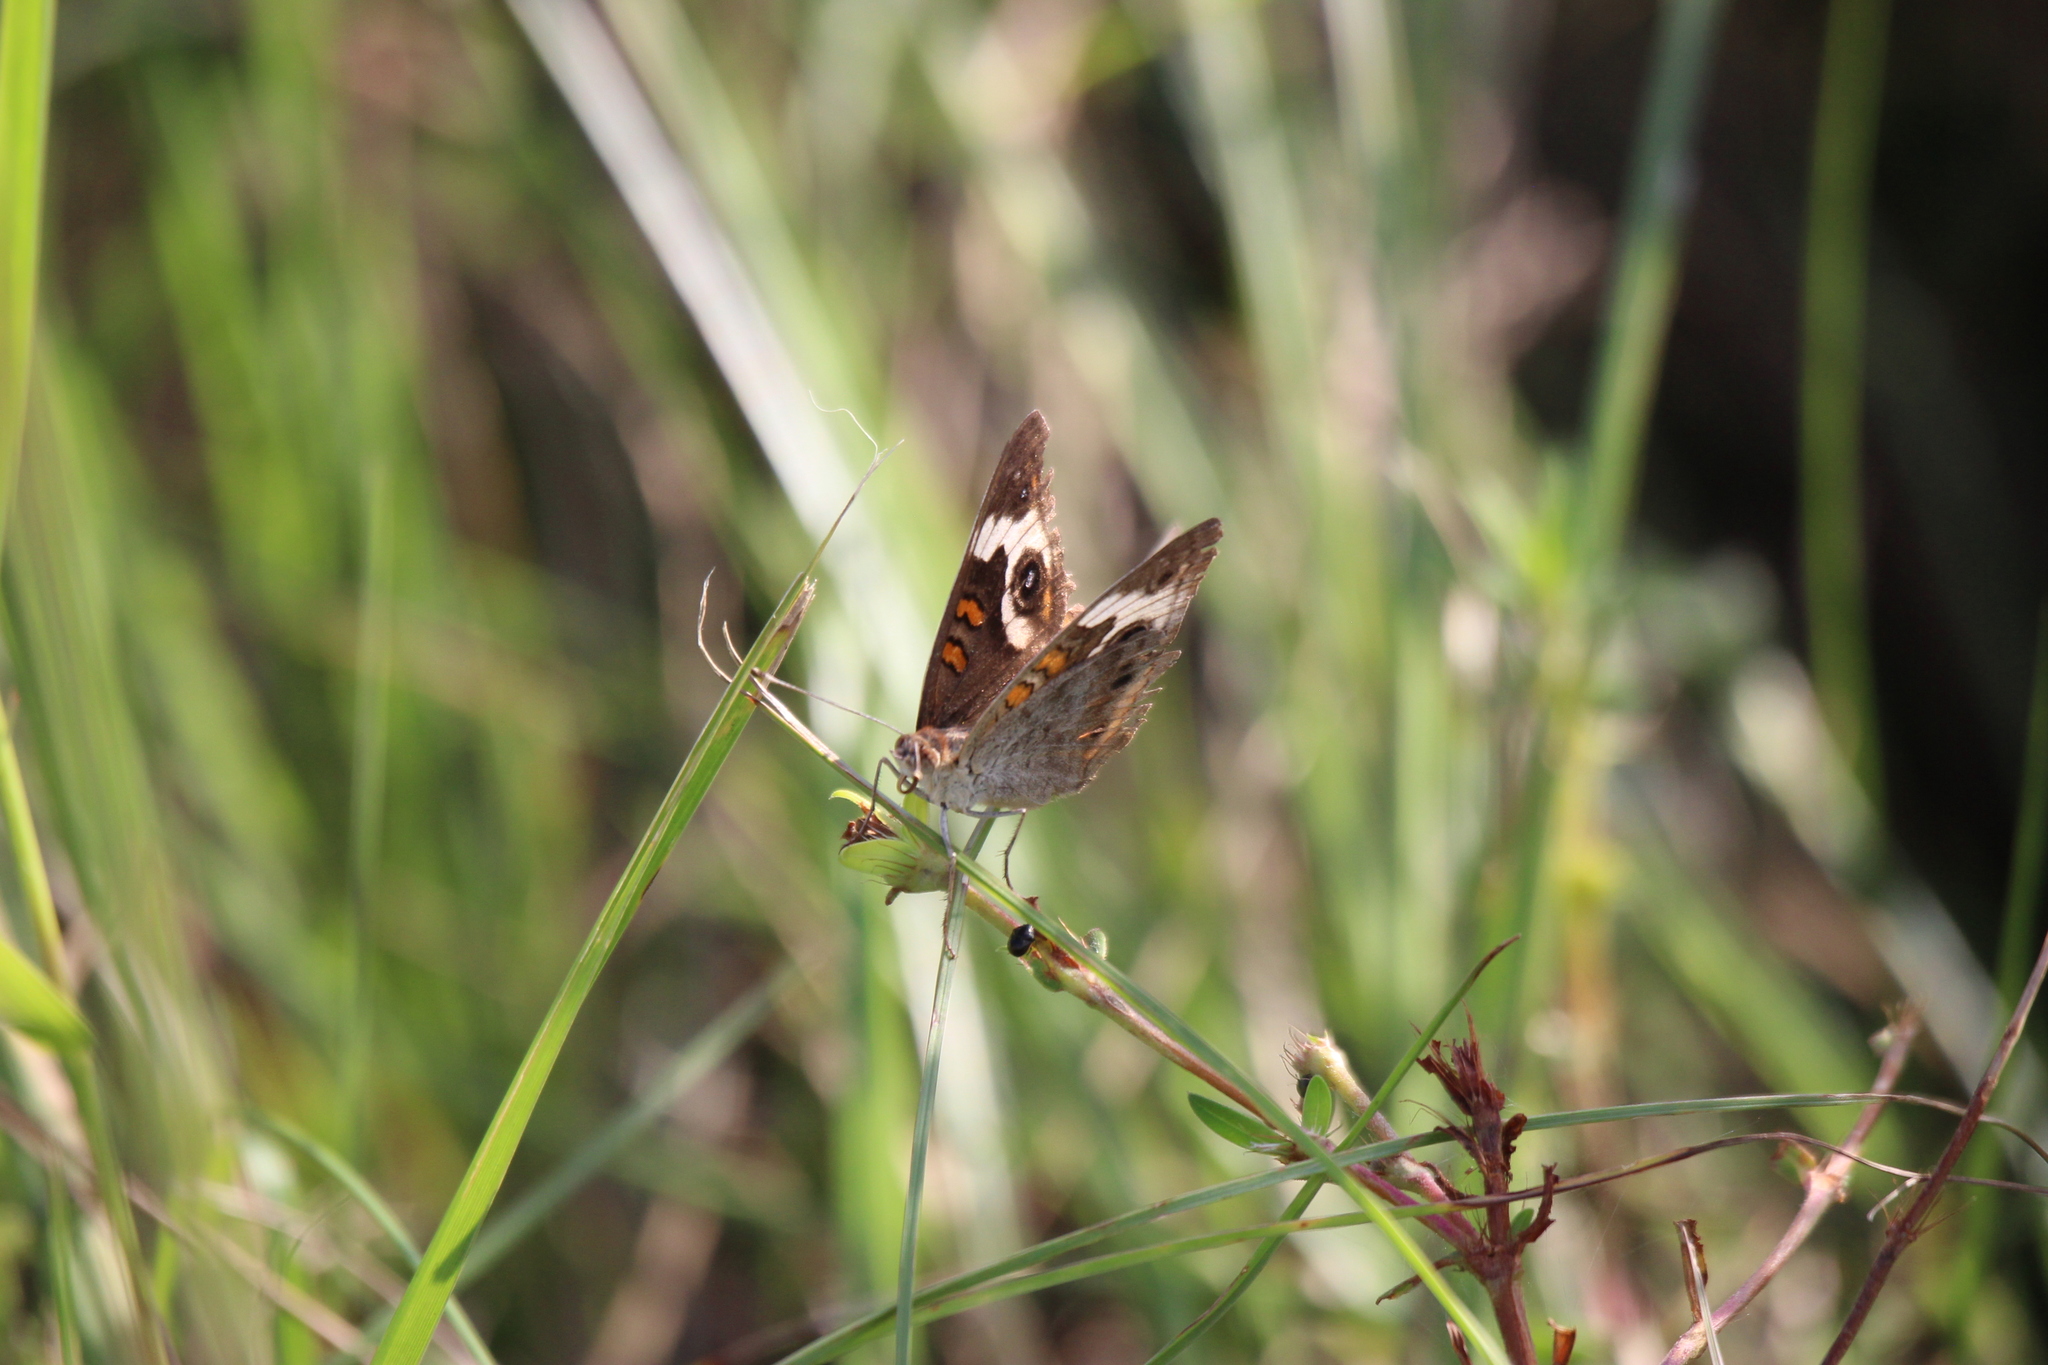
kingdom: Animalia
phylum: Arthropoda
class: Insecta
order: Lepidoptera
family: Nymphalidae
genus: Junonia
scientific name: Junonia coenia
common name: Common buckeye
